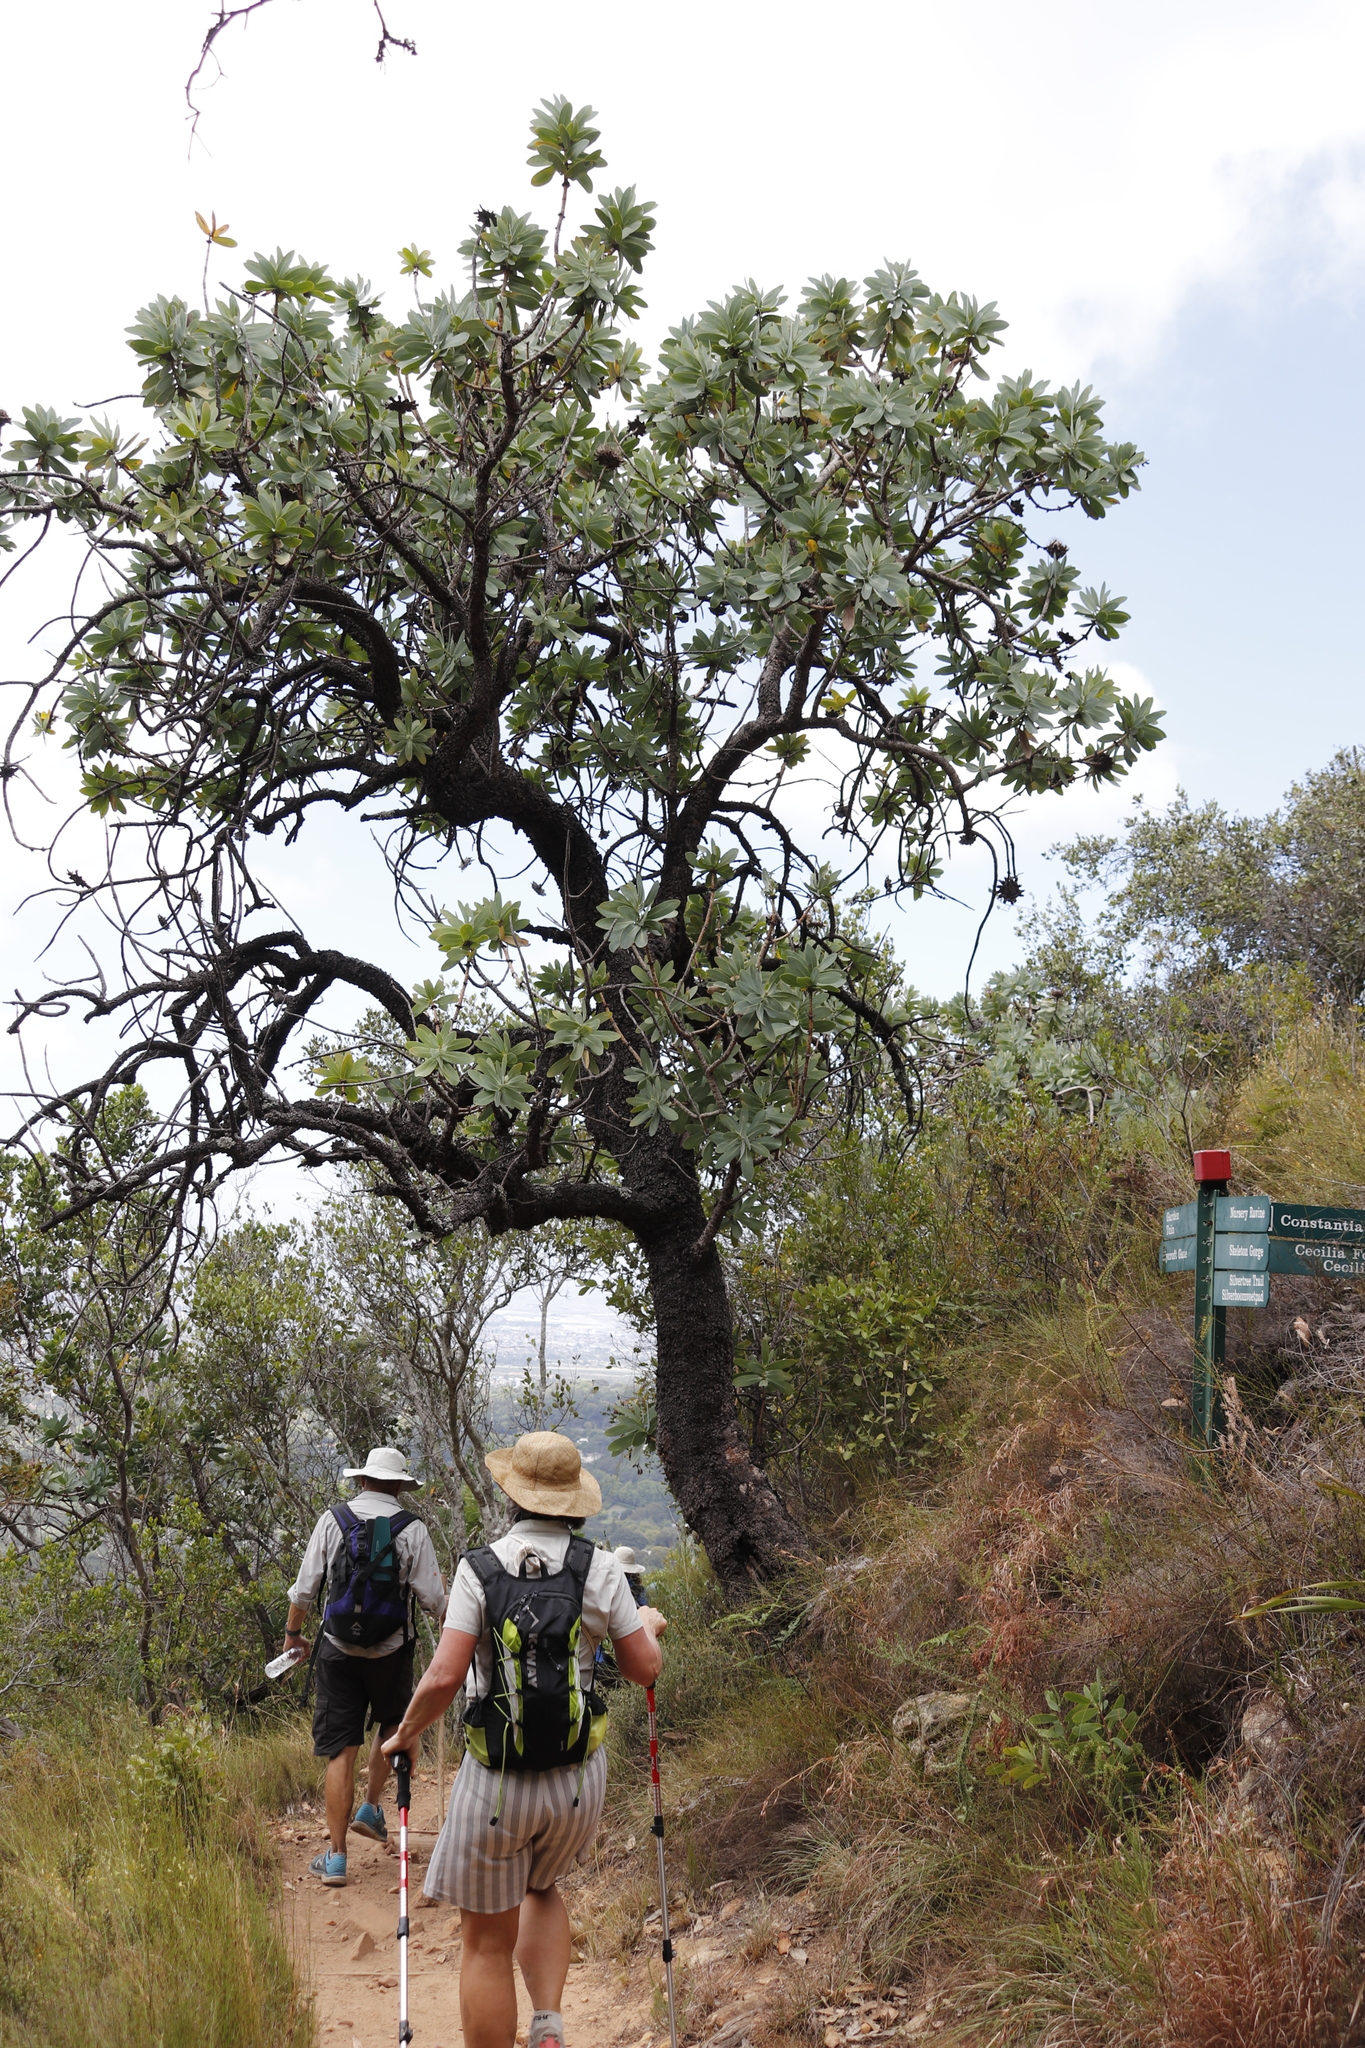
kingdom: Plantae
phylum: Tracheophyta
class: Magnoliopsida
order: Proteales
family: Proteaceae
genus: Protea
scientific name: Protea nitida
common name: Tree protea
